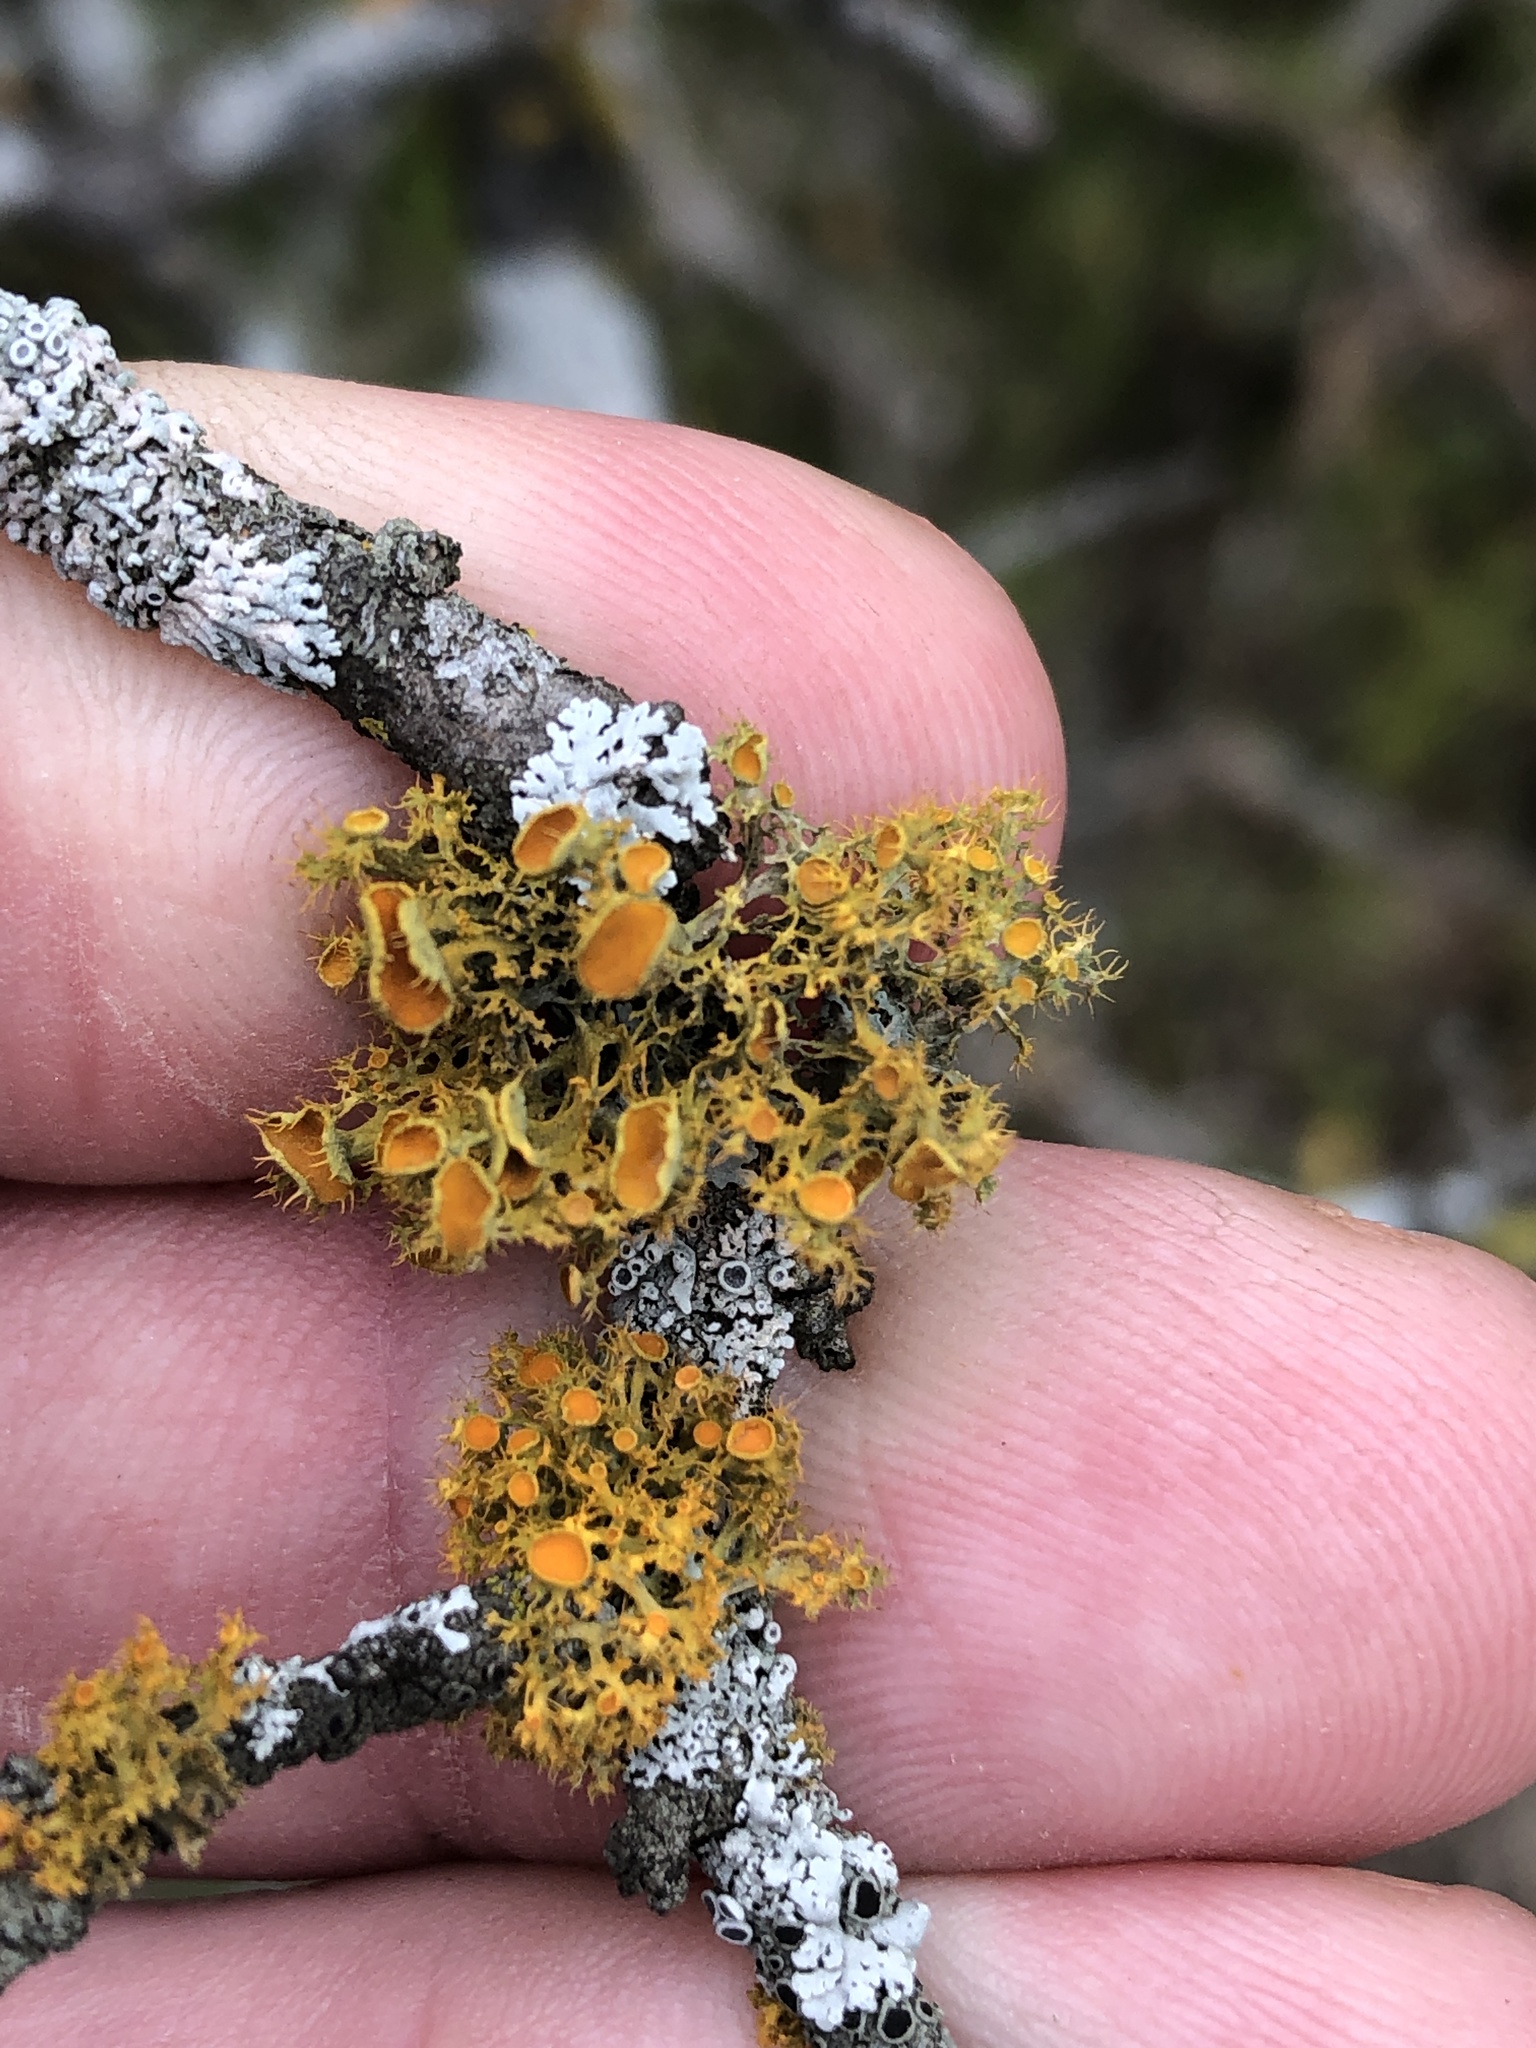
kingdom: Fungi
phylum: Ascomycota
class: Lecanoromycetes
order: Teloschistales
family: Teloschistaceae
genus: Niorma
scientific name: Niorma chrysophthalma
